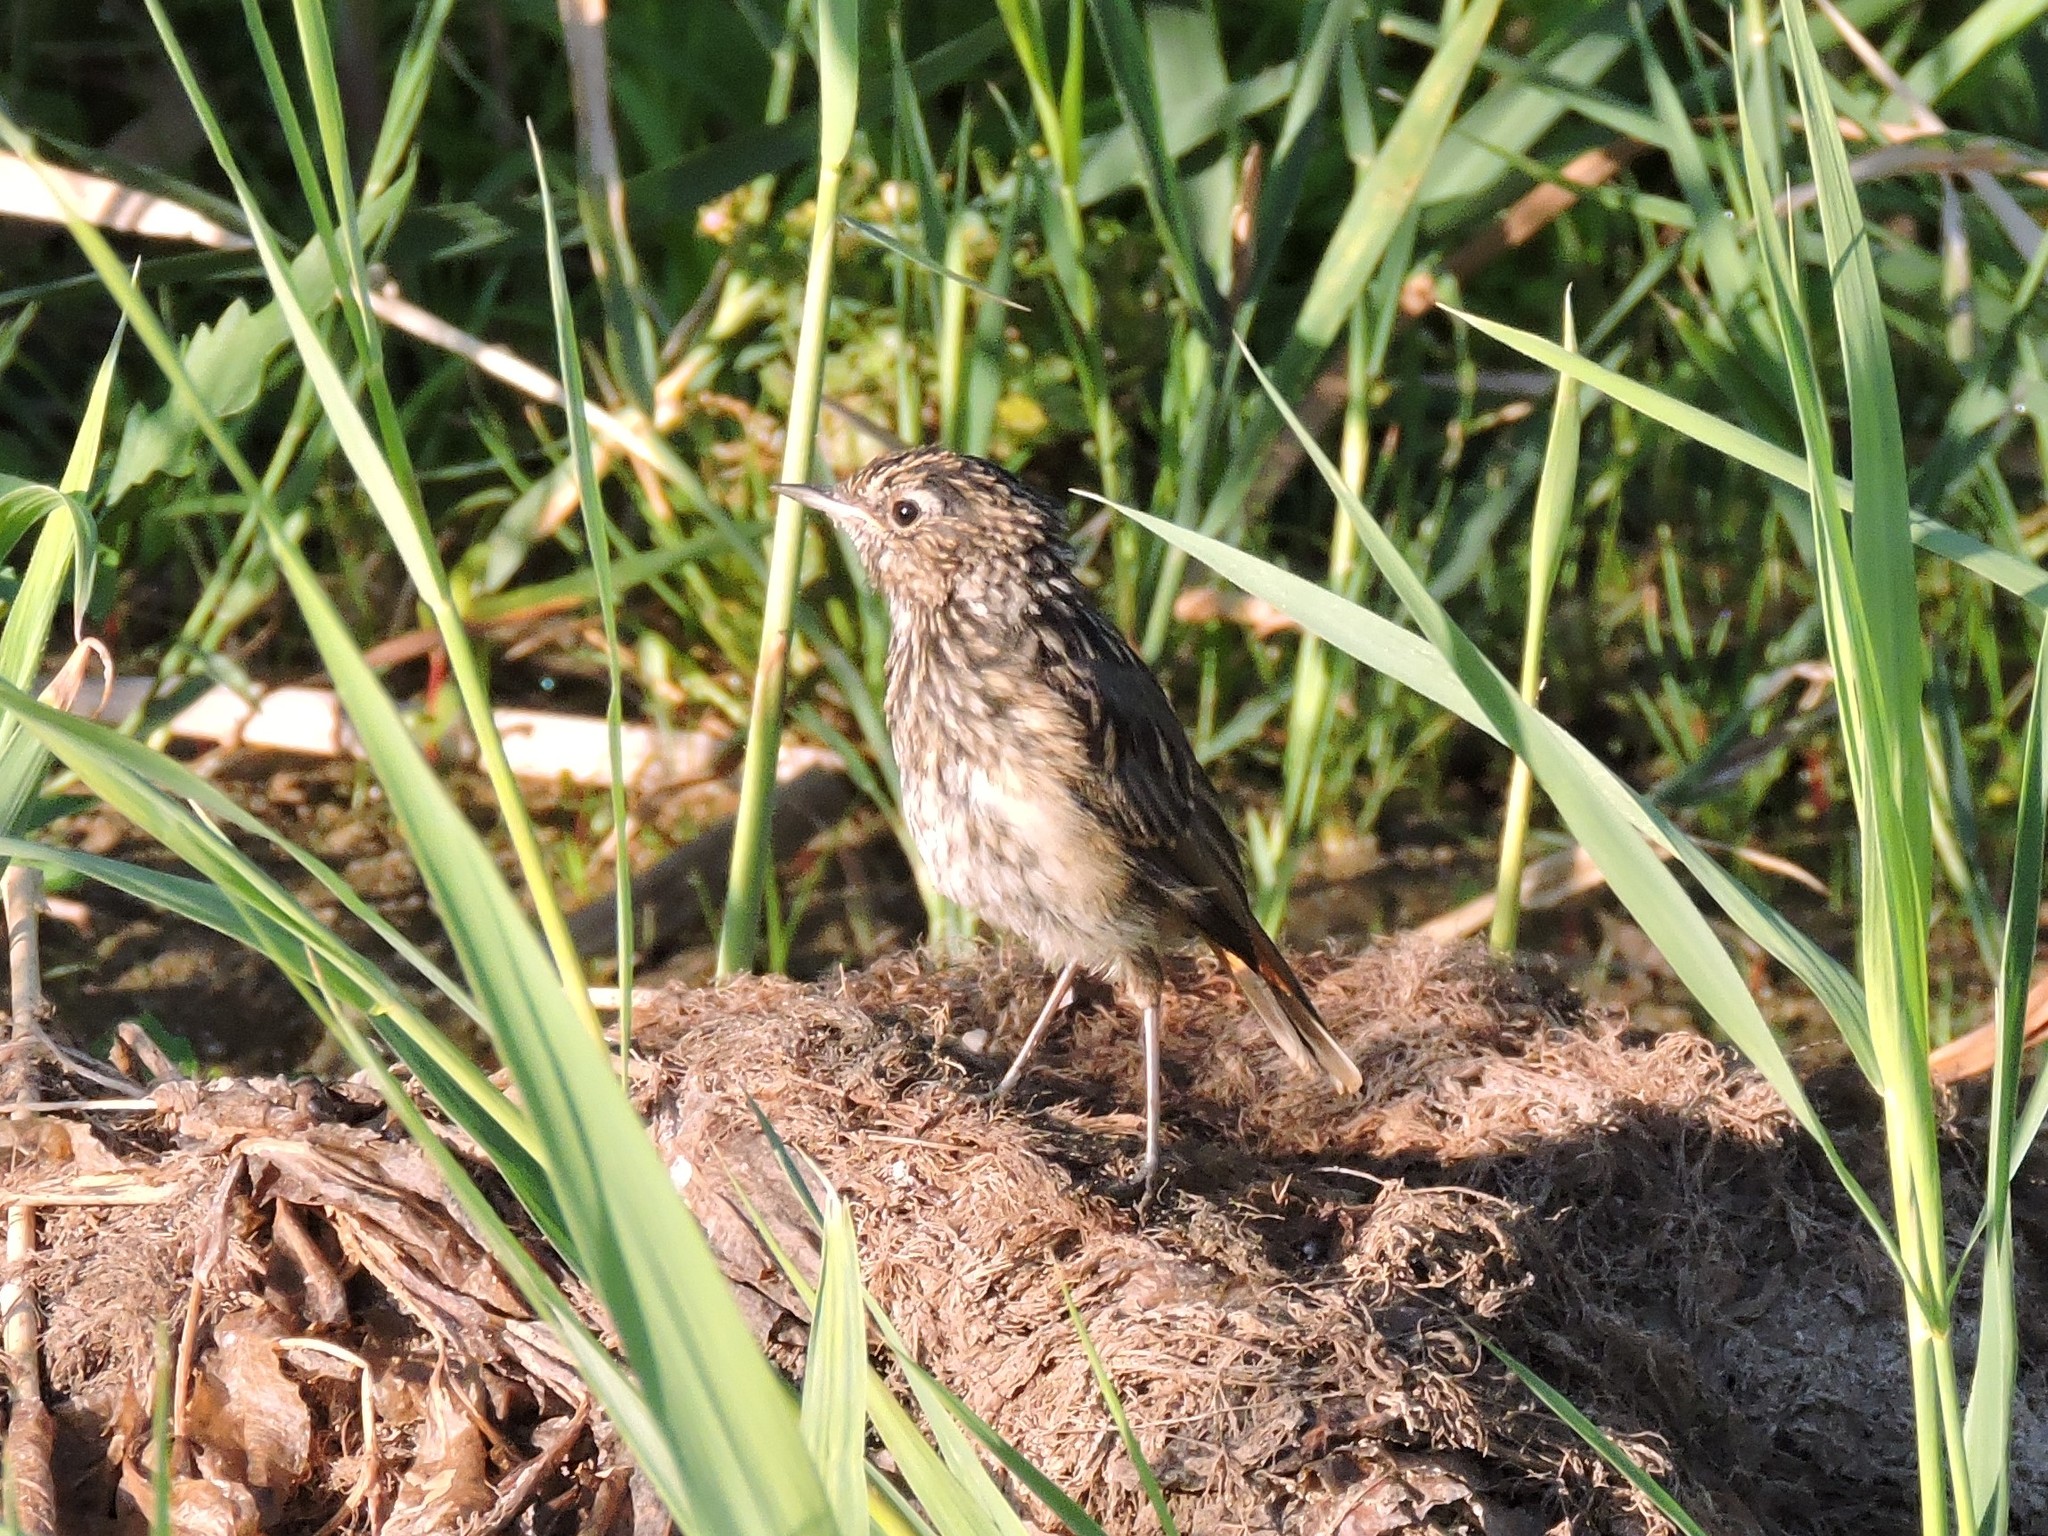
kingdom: Animalia
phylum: Chordata
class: Aves
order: Passeriformes
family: Muscicapidae
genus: Luscinia
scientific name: Luscinia svecica
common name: Bluethroat
